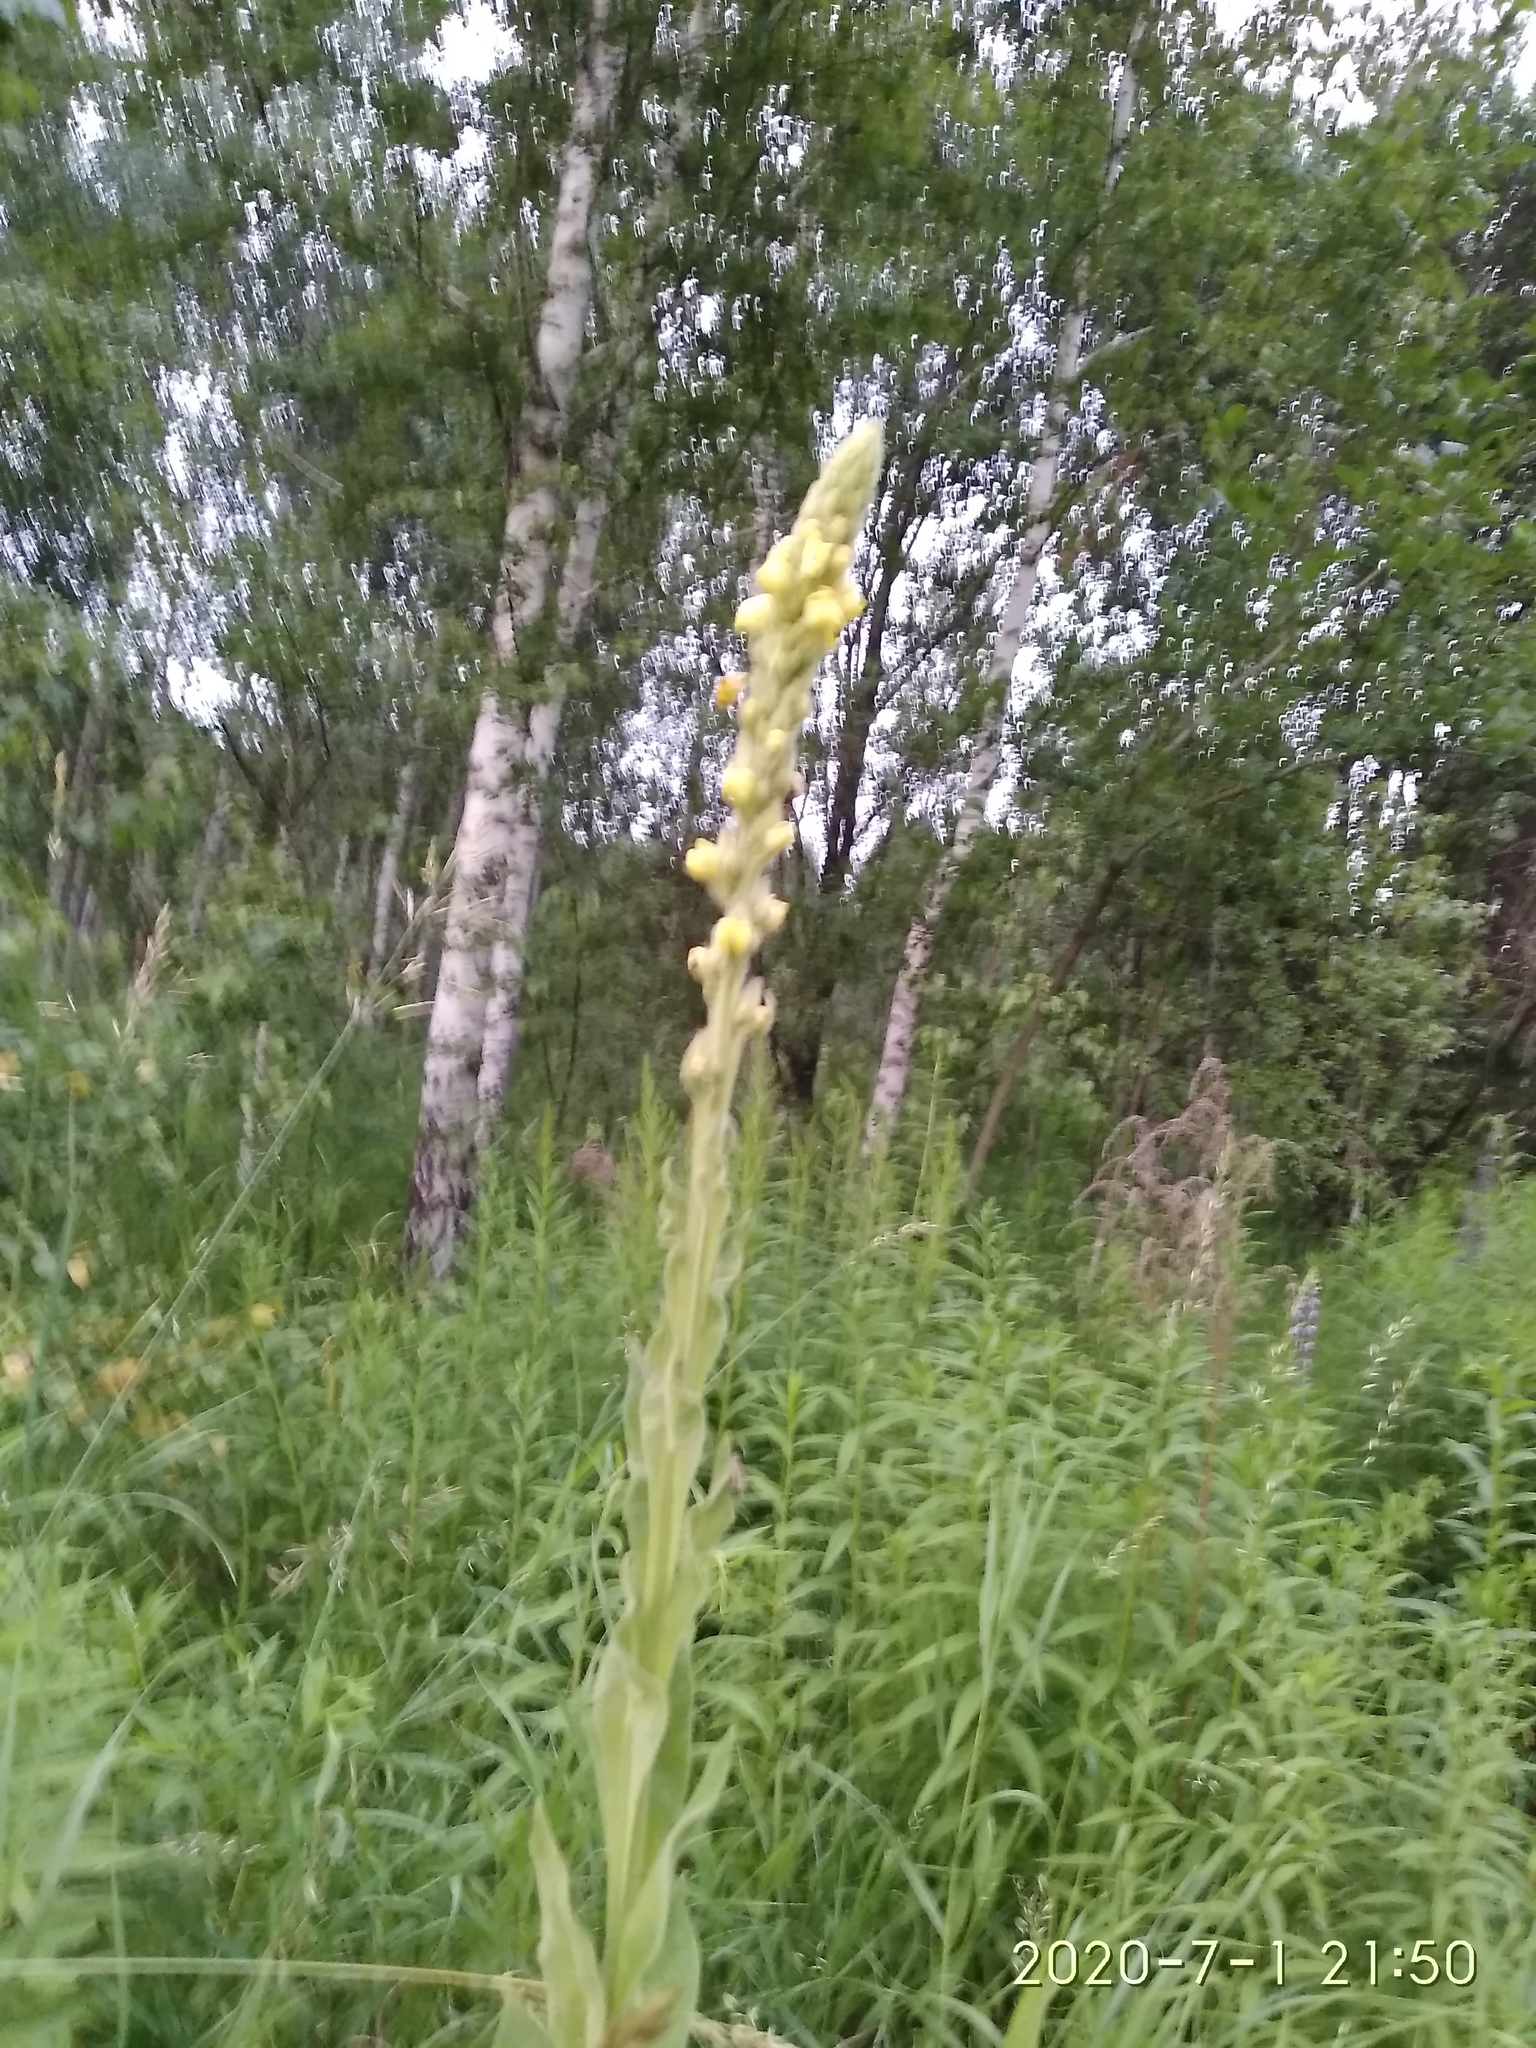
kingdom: Plantae
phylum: Tracheophyta
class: Magnoliopsida
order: Lamiales
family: Scrophulariaceae
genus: Verbascum
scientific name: Verbascum thapsus
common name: Common mullein
